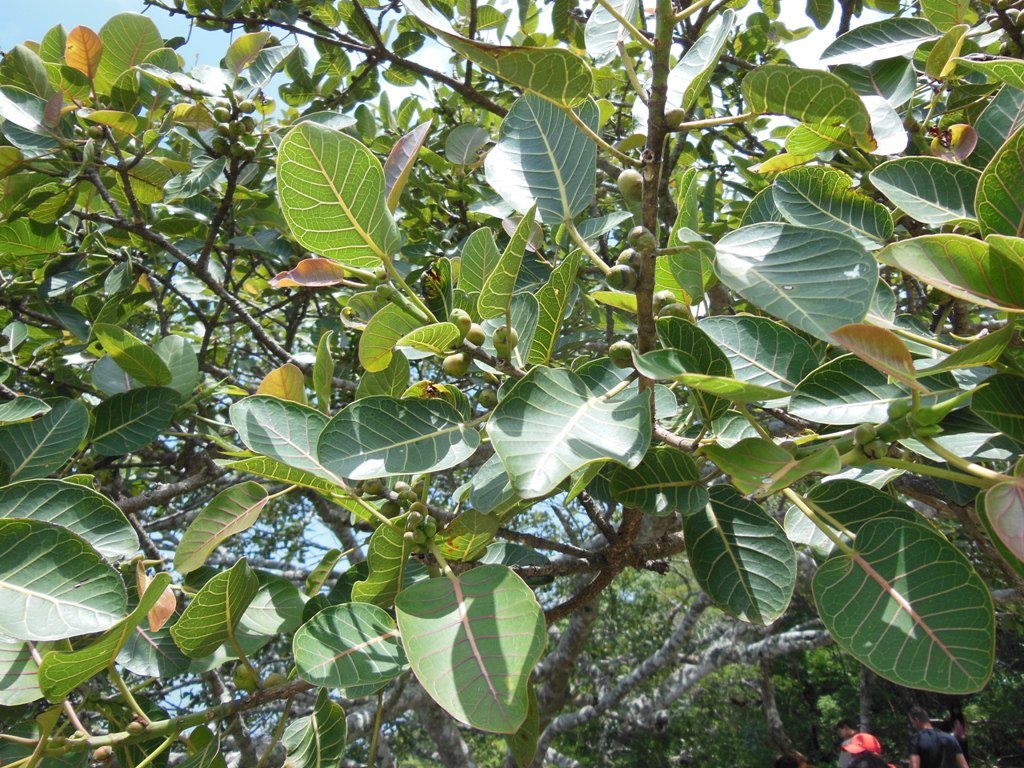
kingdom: Plantae
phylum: Tracheophyta
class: Magnoliopsida
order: Rosales
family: Moraceae
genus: Ficus
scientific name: Ficus aurea
